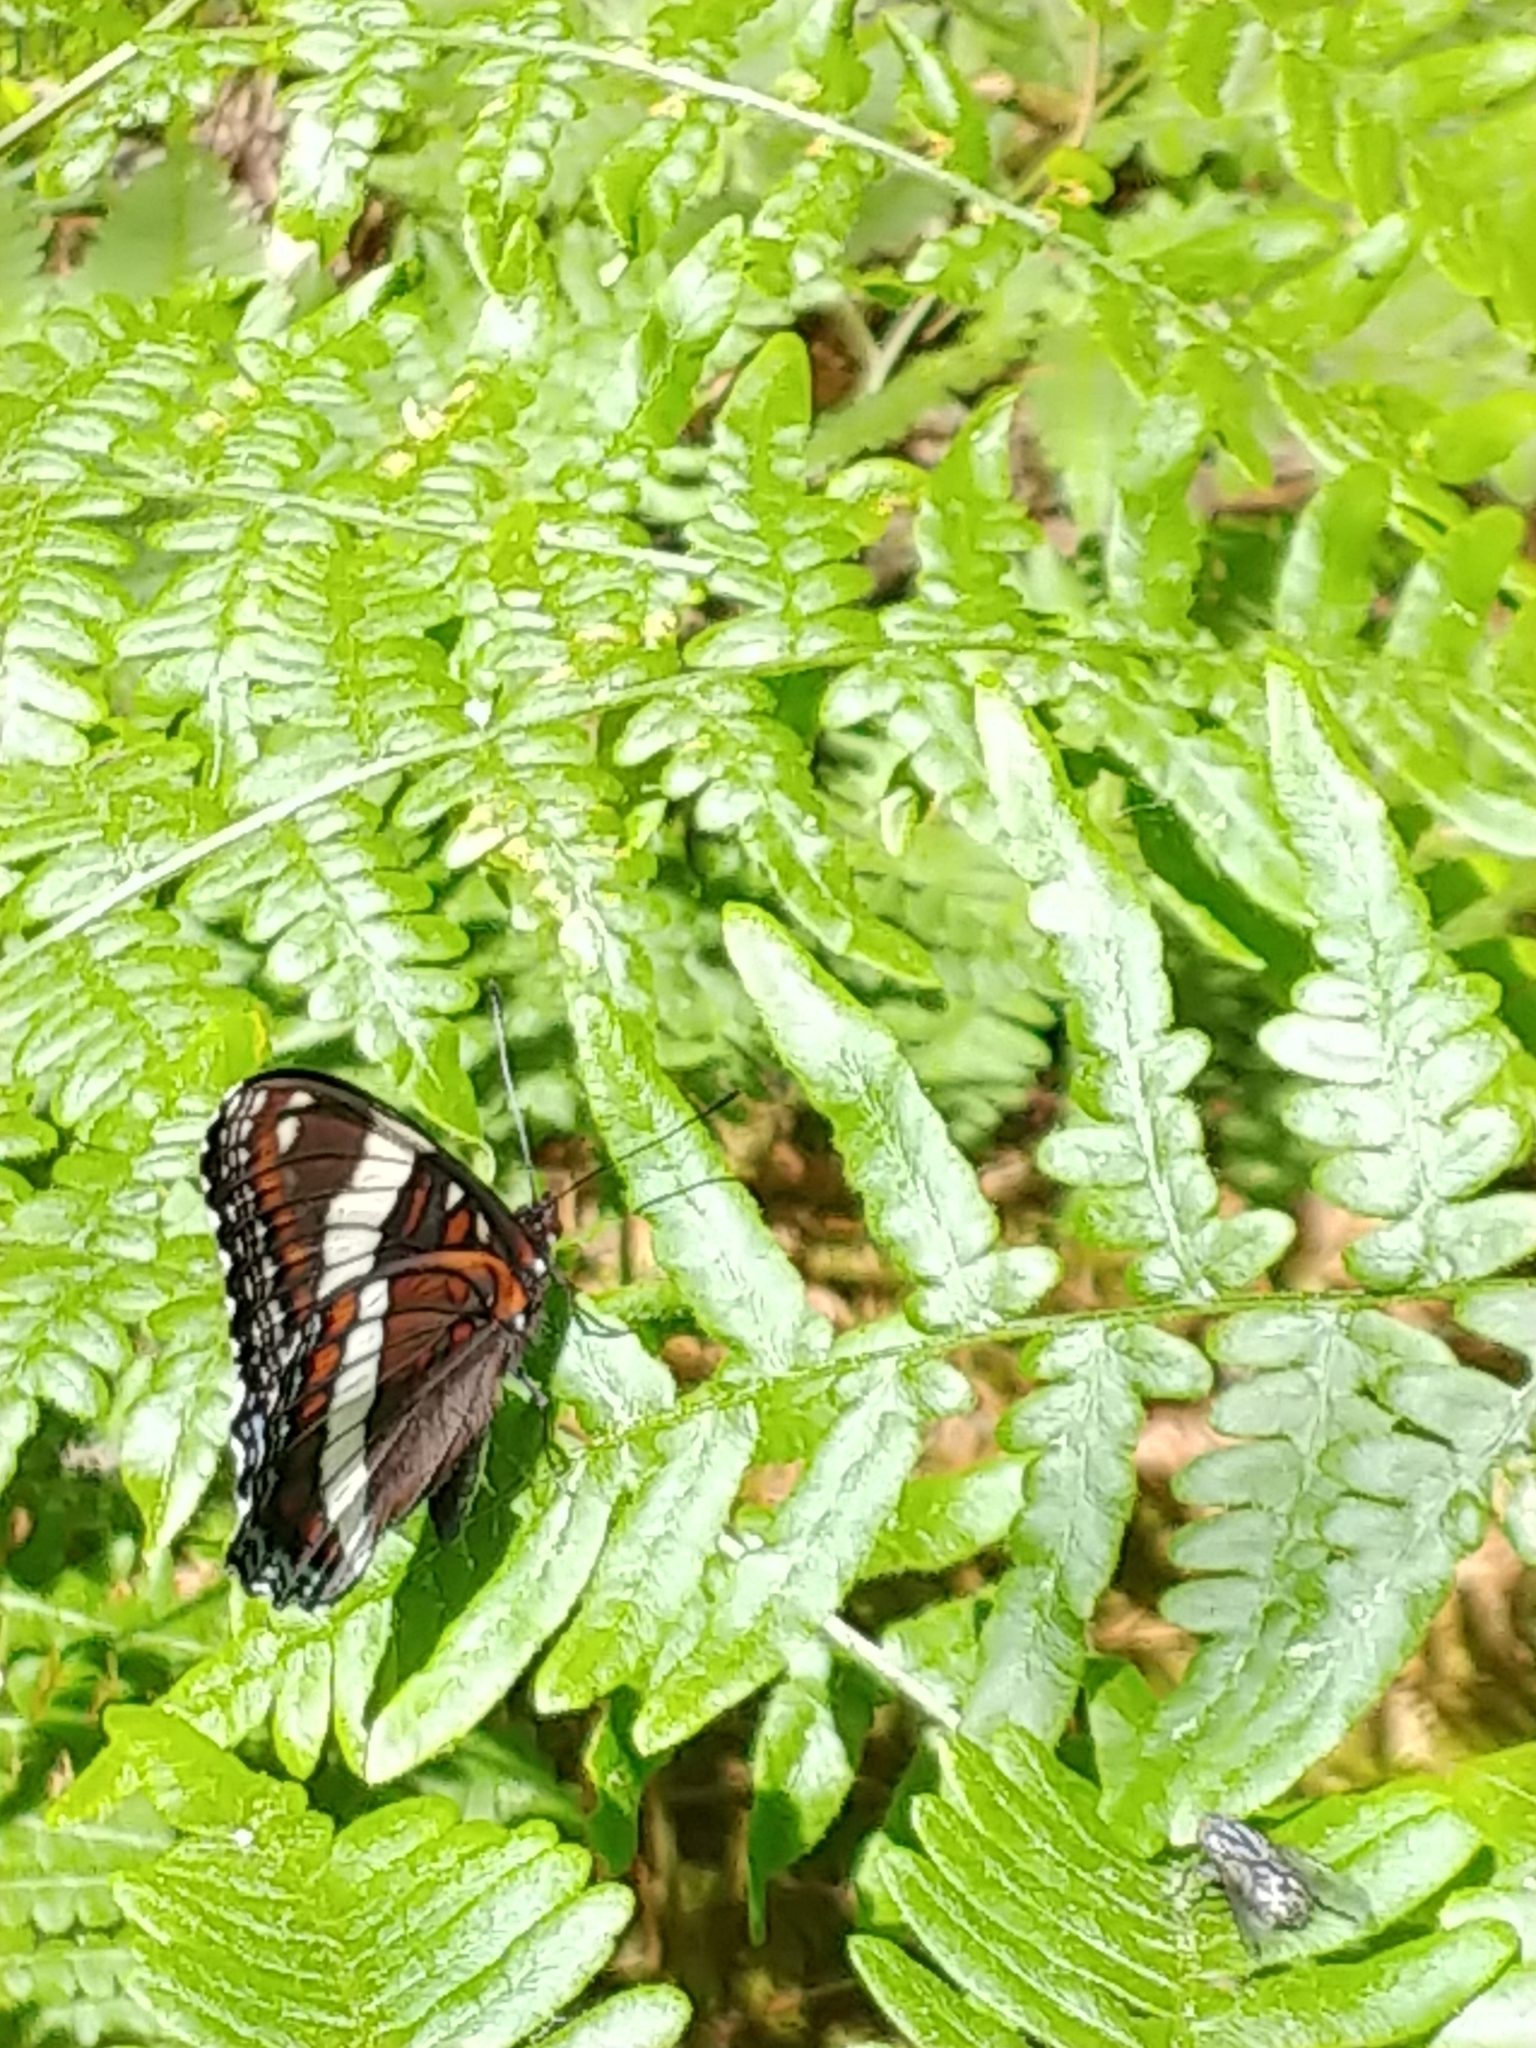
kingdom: Animalia
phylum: Arthropoda
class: Insecta
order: Lepidoptera
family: Nymphalidae
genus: Limenitis
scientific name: Limenitis arthemis
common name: Red-spotted admiral
